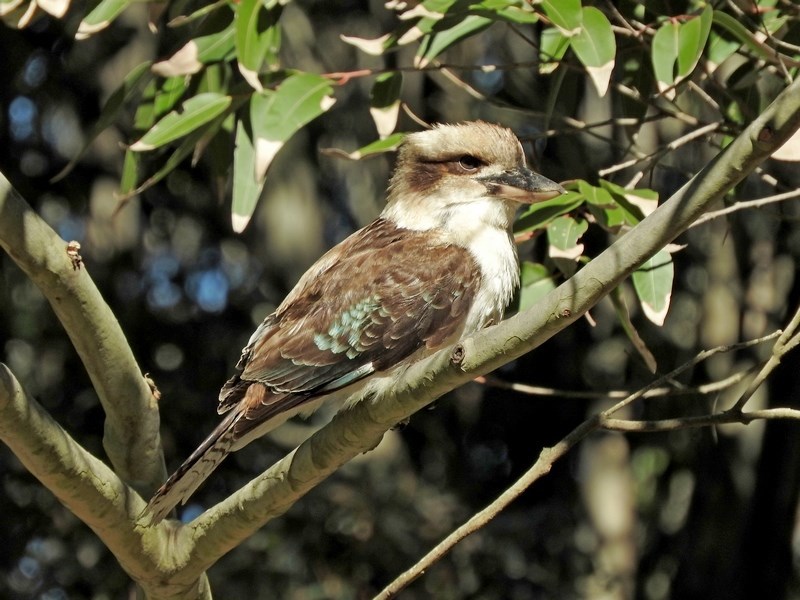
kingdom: Animalia
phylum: Chordata
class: Aves
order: Coraciiformes
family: Alcedinidae
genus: Dacelo
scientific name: Dacelo novaeguineae
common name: Laughing kookaburra
